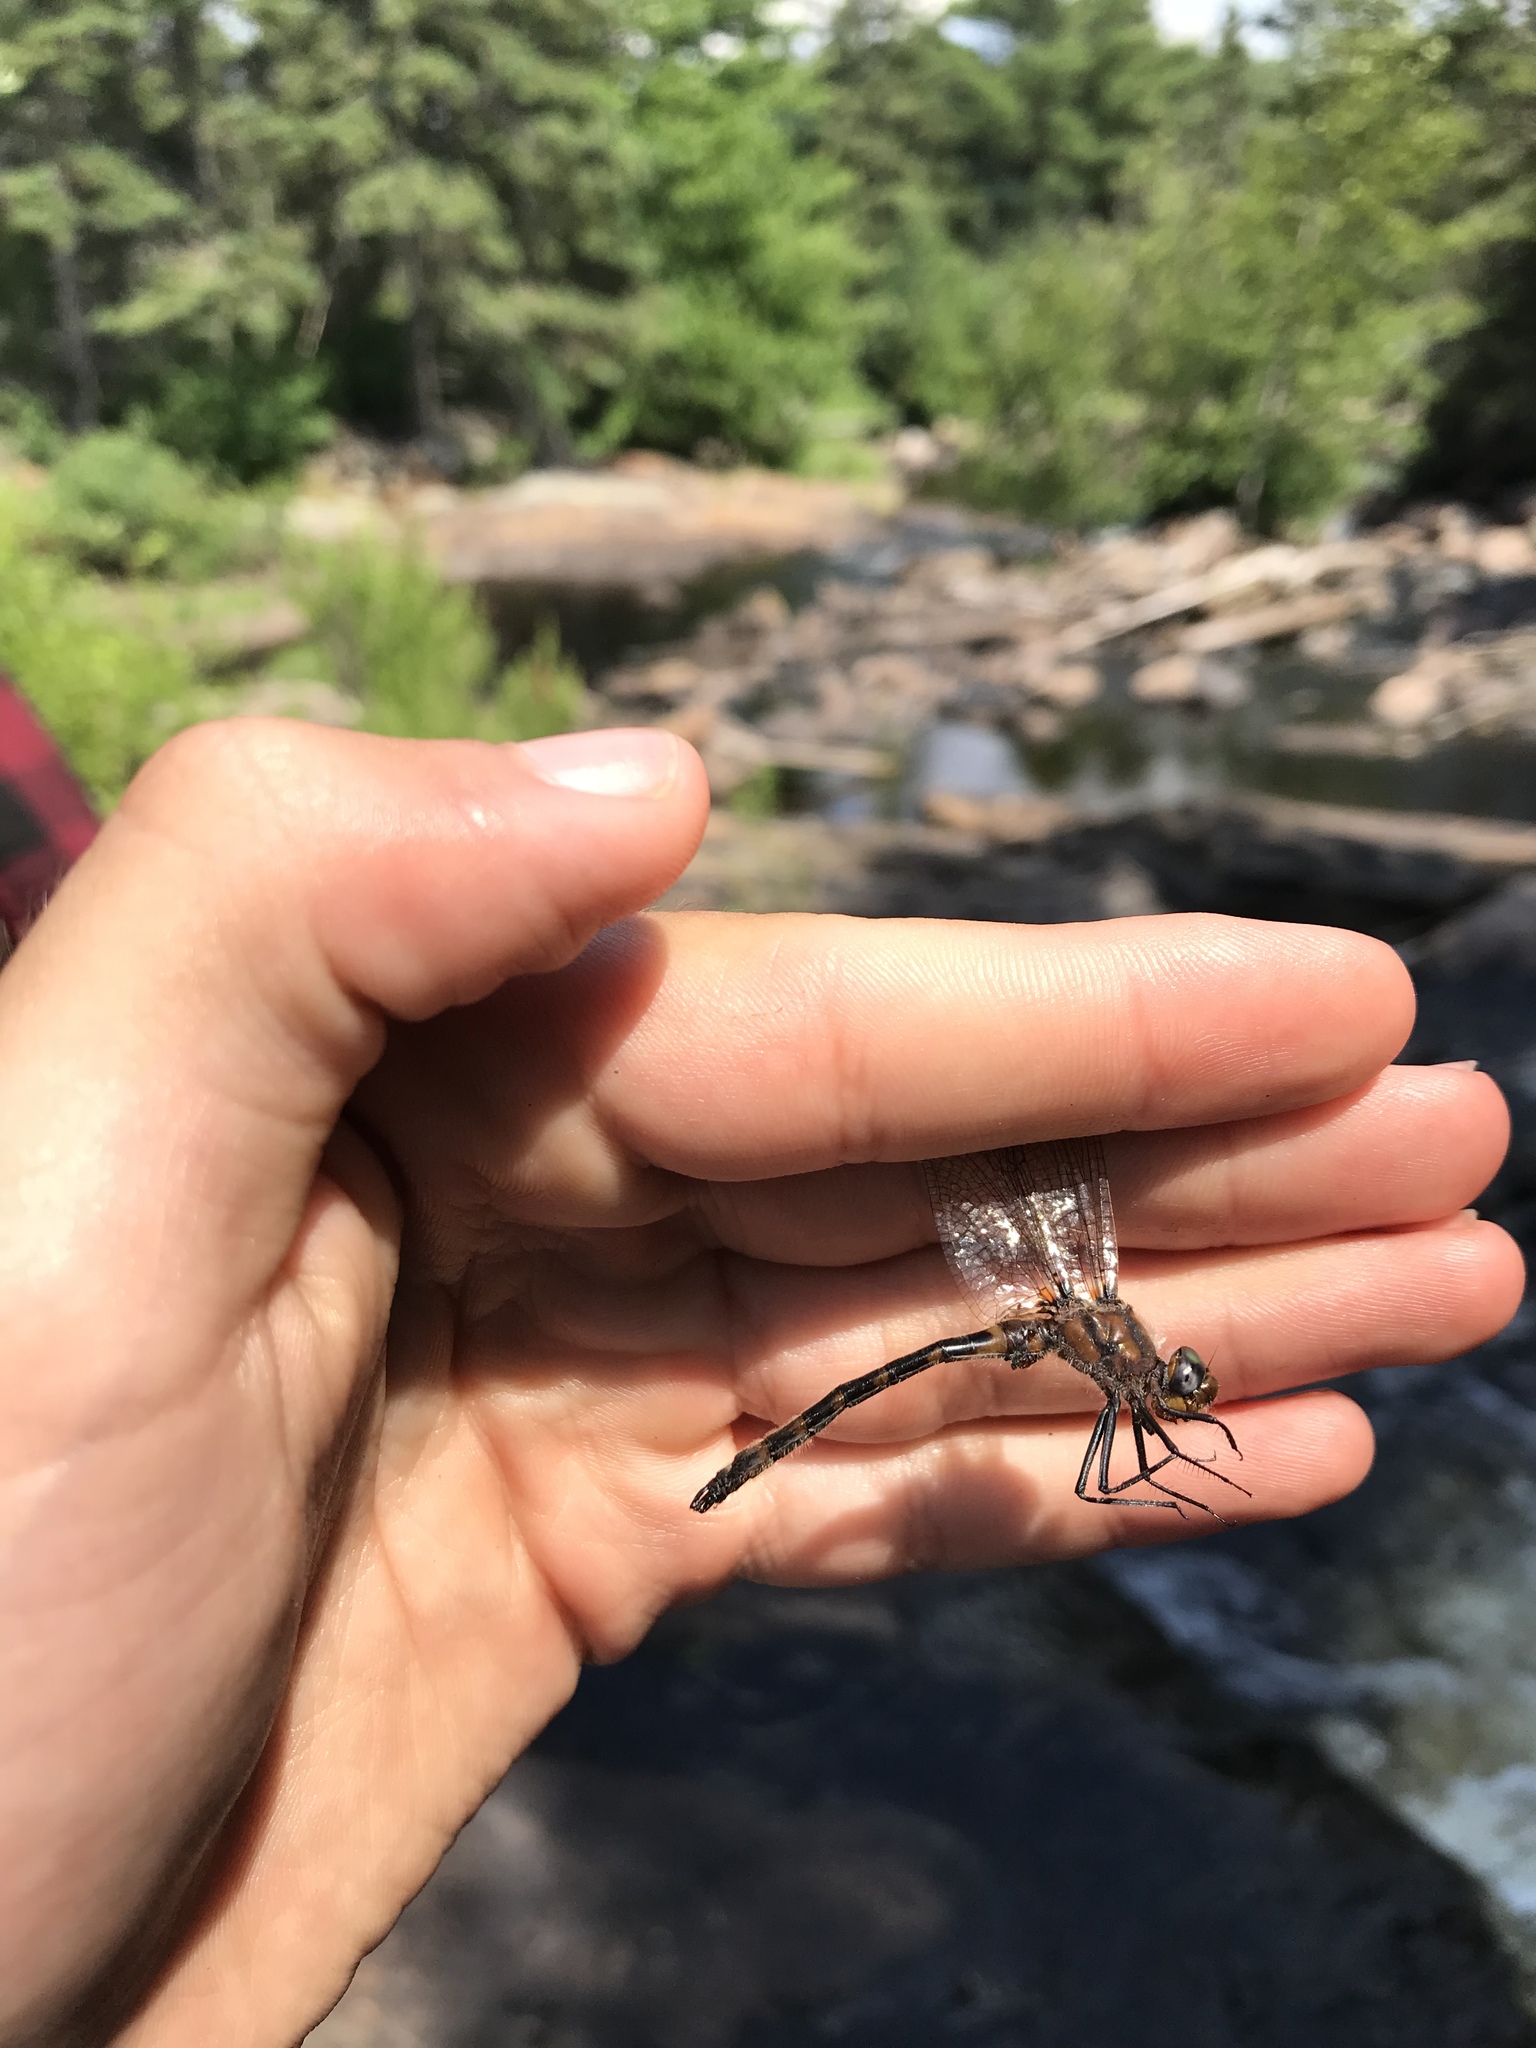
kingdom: Animalia
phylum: Arthropoda
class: Insecta
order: Odonata
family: Corduliidae
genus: Helocordulia
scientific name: Helocordulia uhleri
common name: Uhler's sundragon
